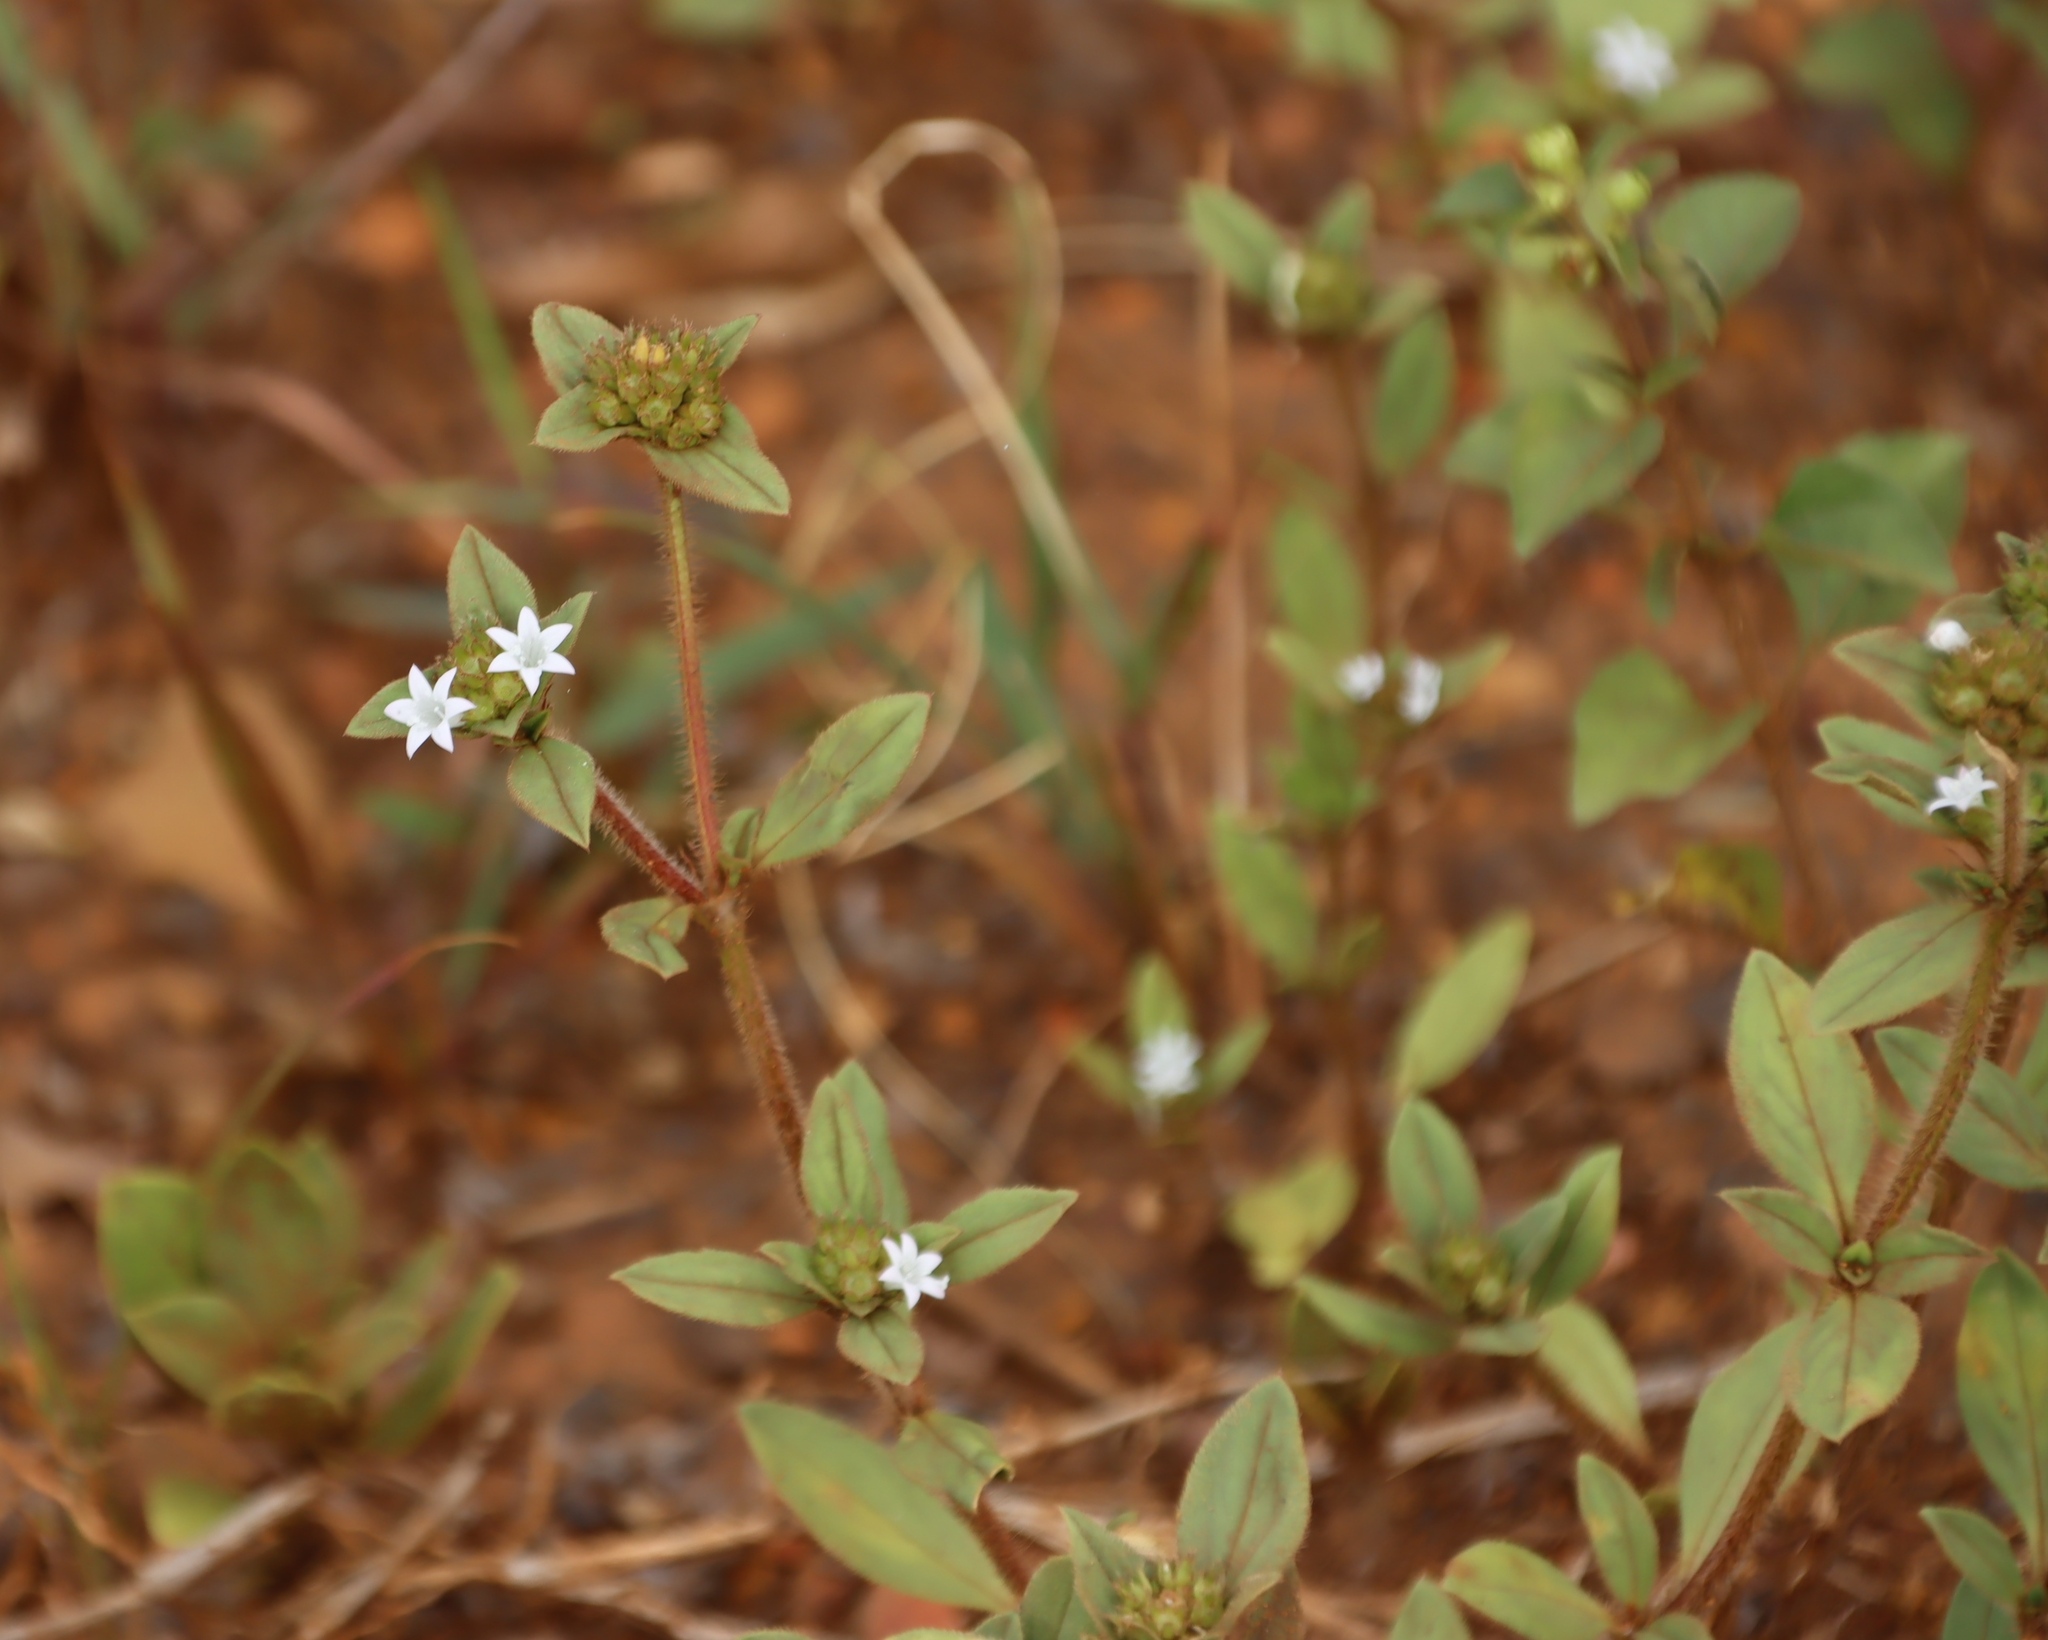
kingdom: Plantae
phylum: Tracheophyta
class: Magnoliopsida
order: Gentianales
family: Rubiaceae
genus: Richardia
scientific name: Richardia brasiliensis
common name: Tropical mexican clover
